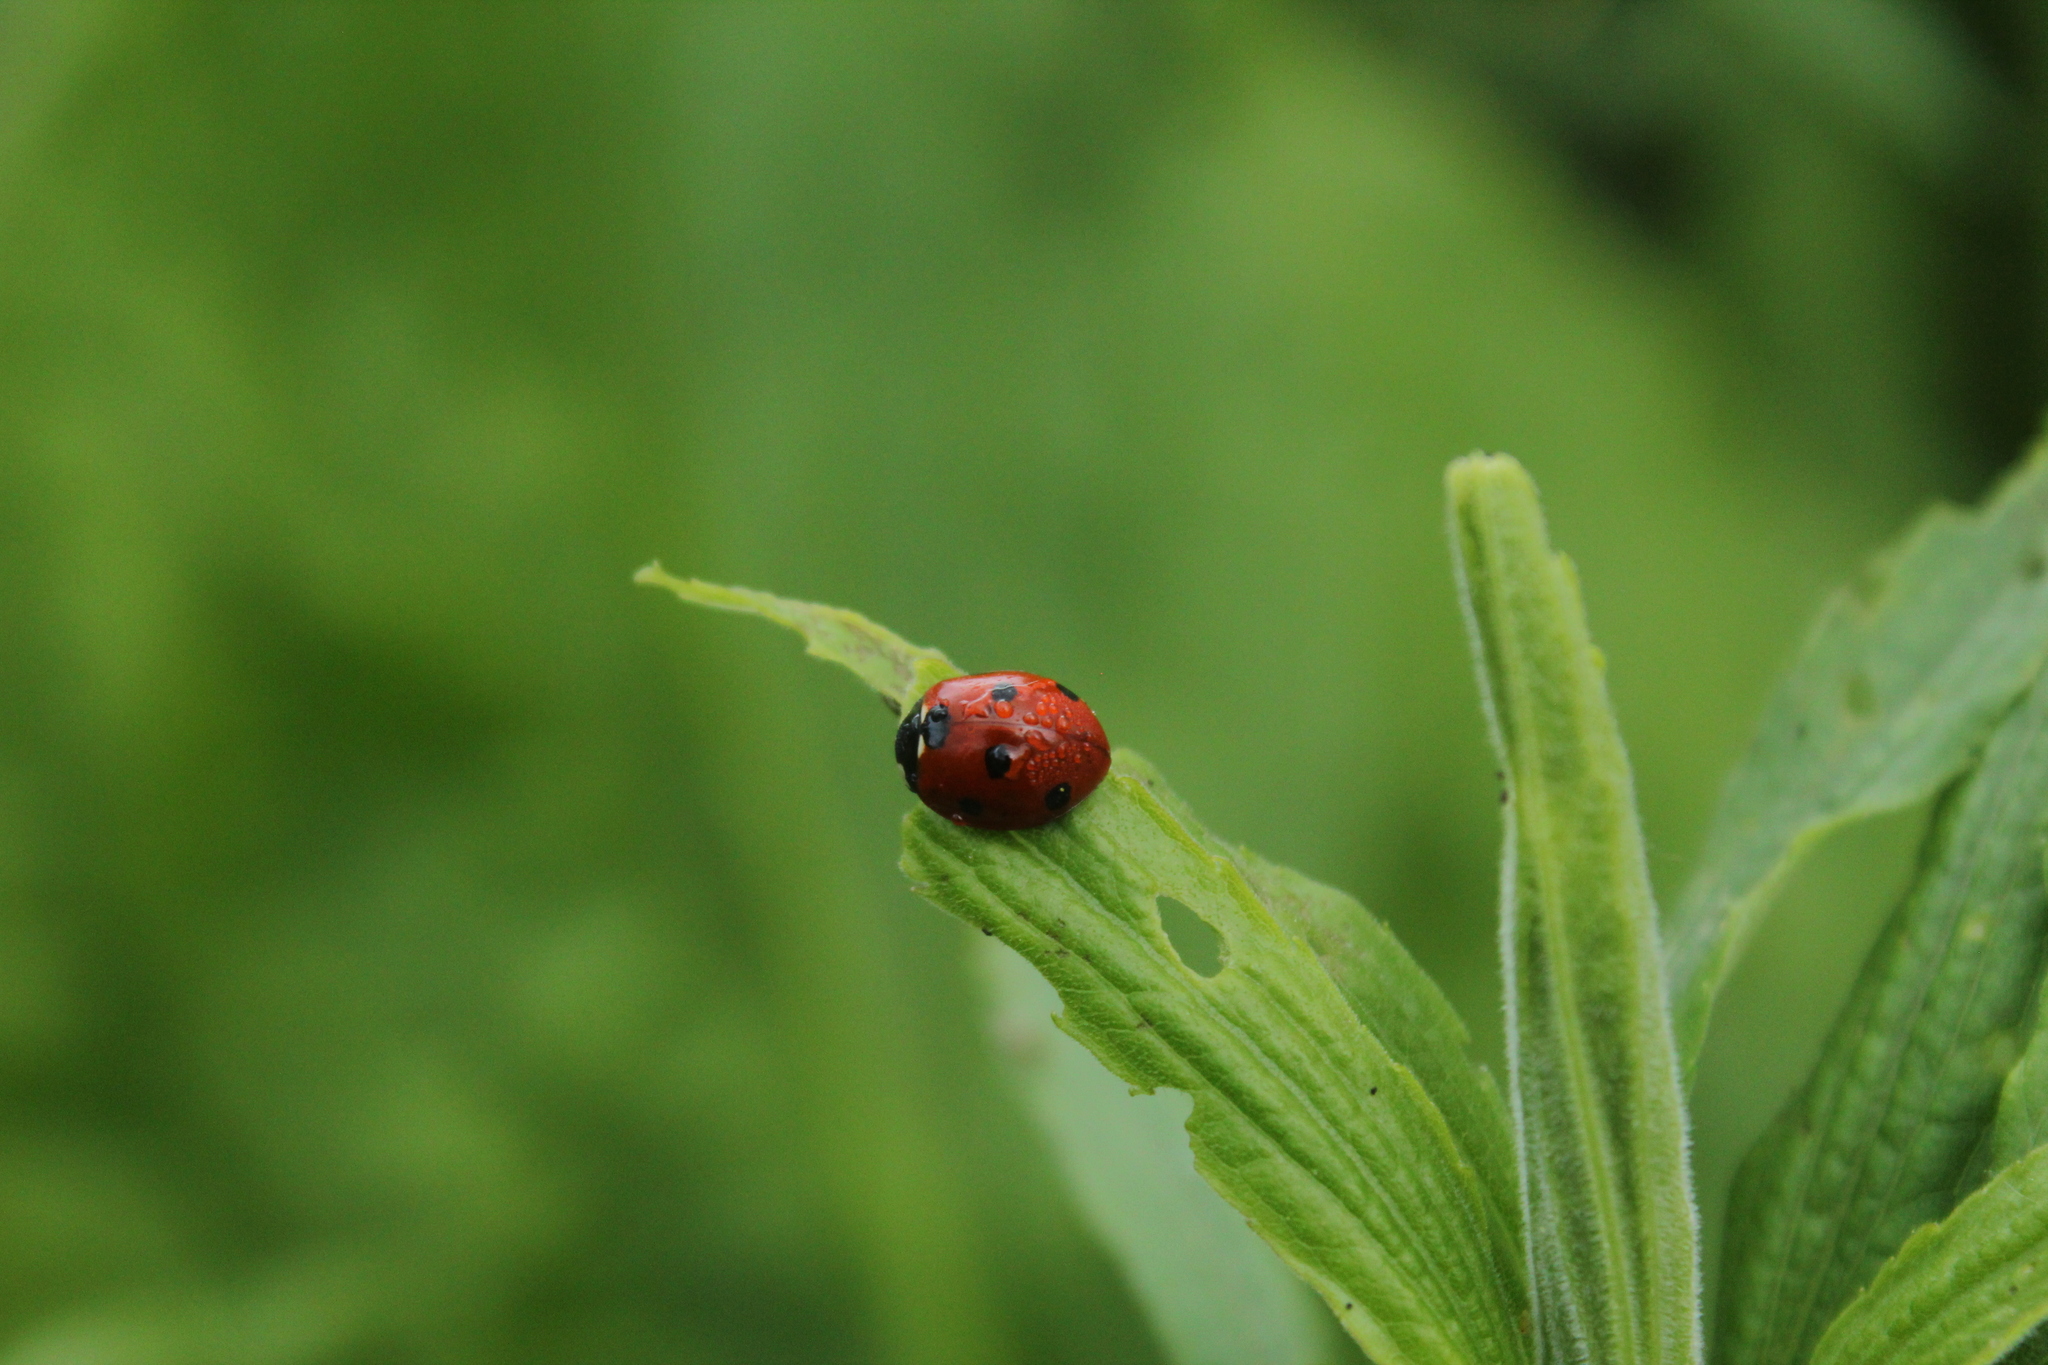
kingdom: Animalia
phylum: Arthropoda
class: Insecta
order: Coleoptera
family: Coccinellidae
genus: Coccinella
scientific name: Coccinella septempunctata
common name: Sevenspotted lady beetle
